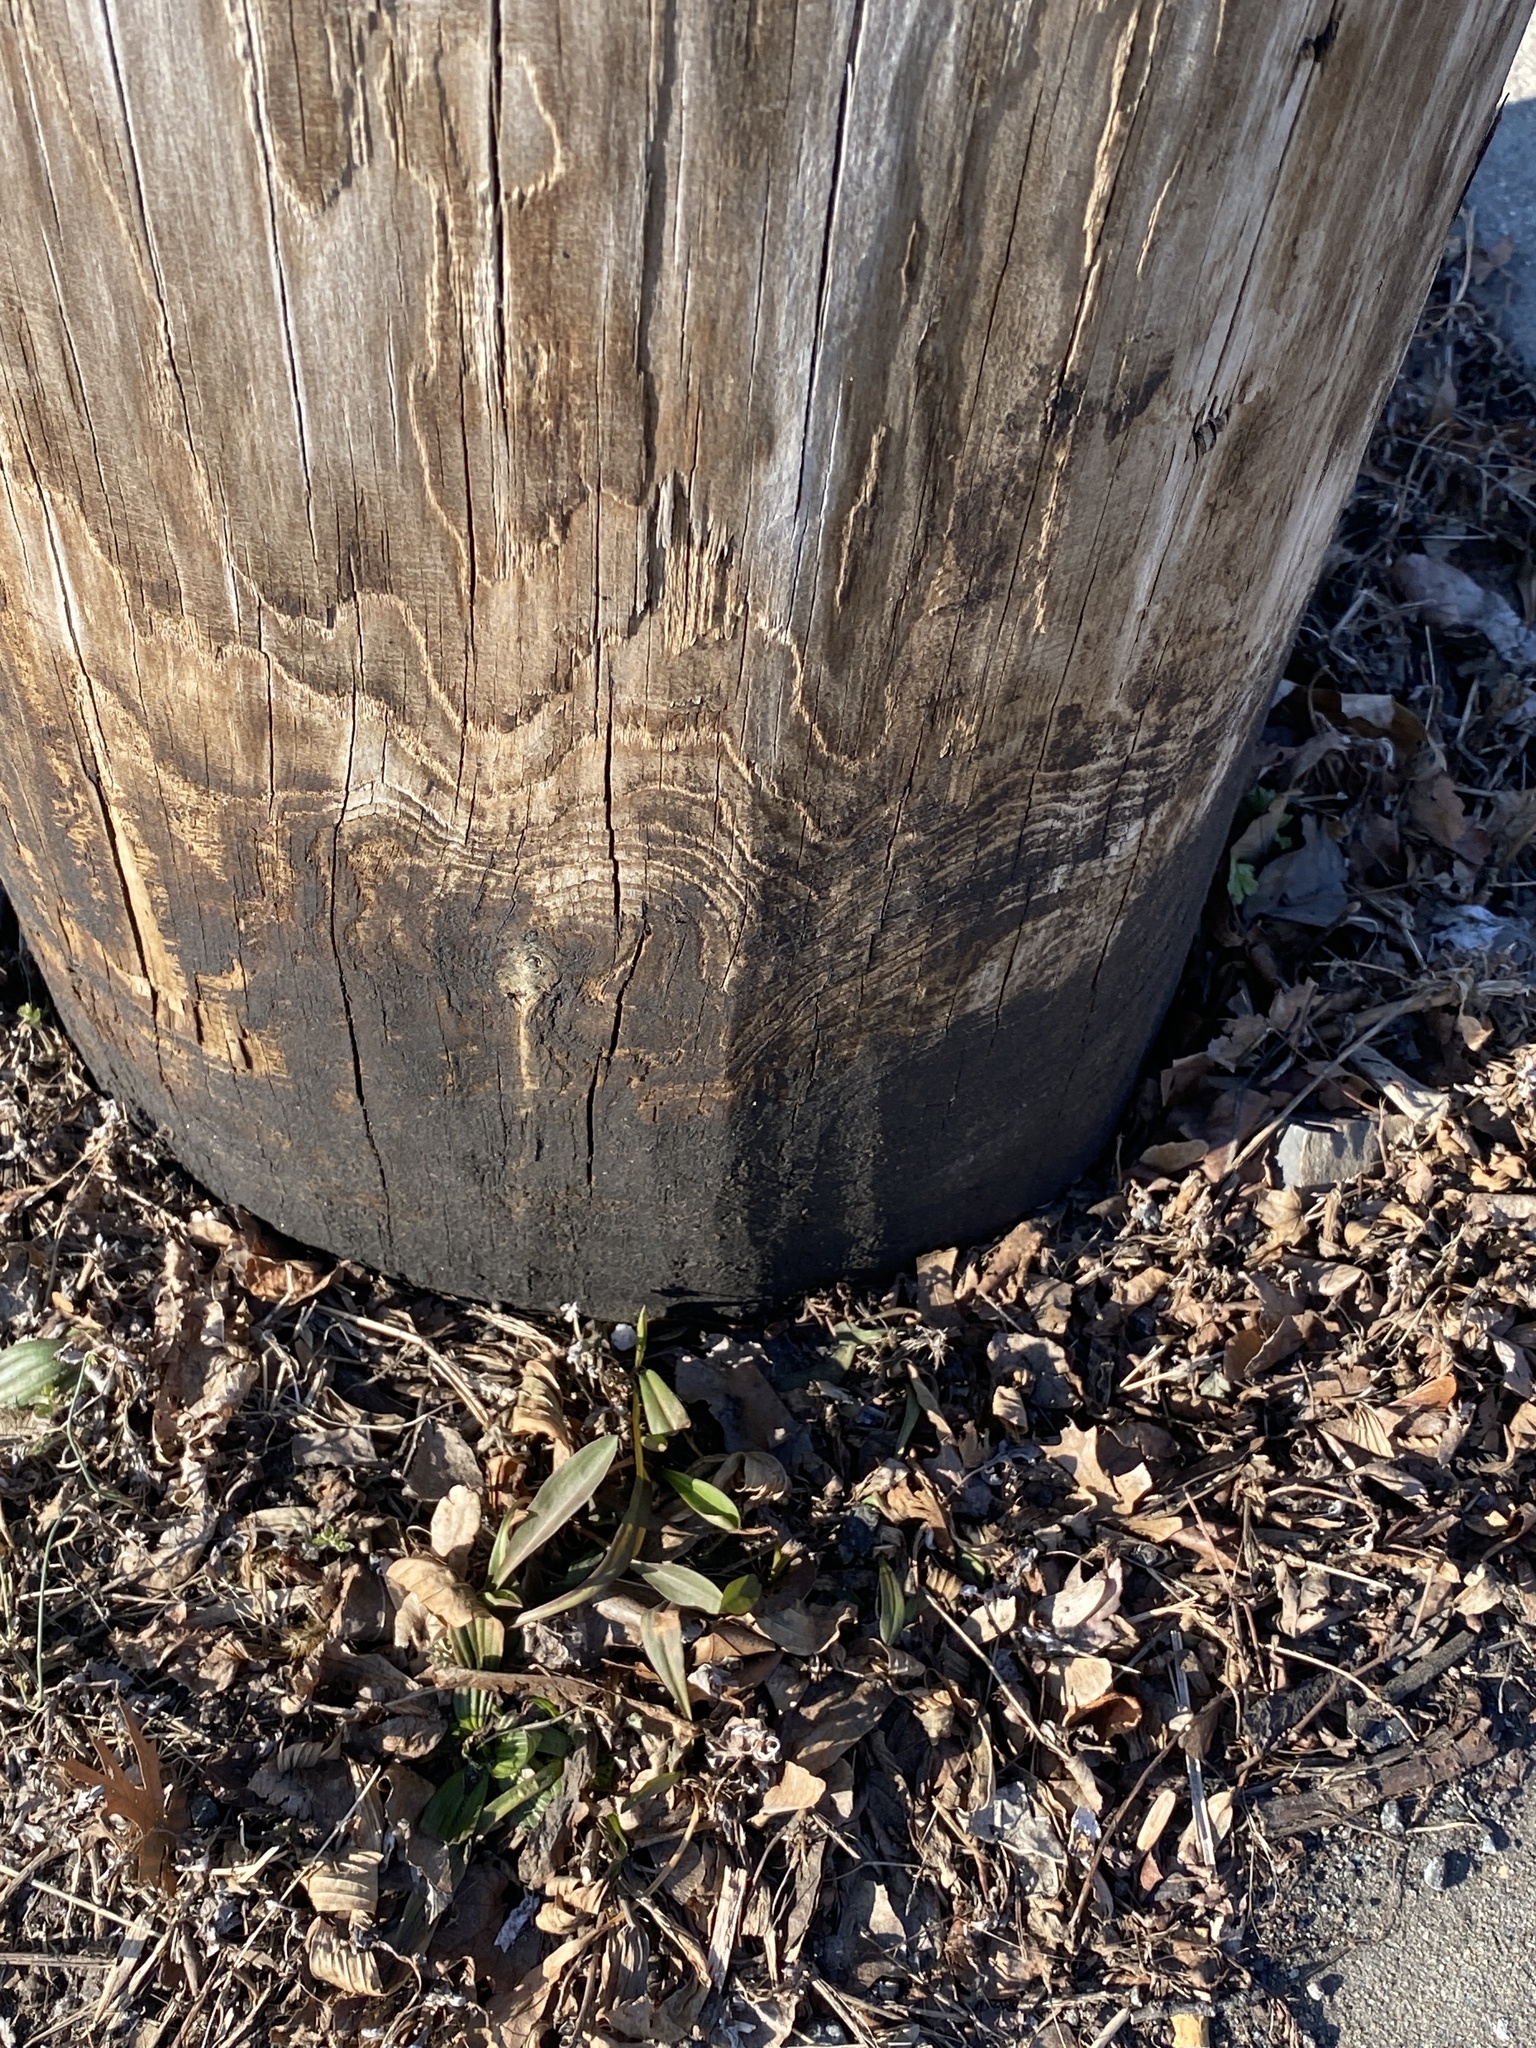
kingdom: Plantae
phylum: Tracheophyta
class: Magnoliopsida
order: Asterales
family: Asteraceae
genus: Solidago
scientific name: Solidago sempervirens
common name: Salt-marsh goldenrod
